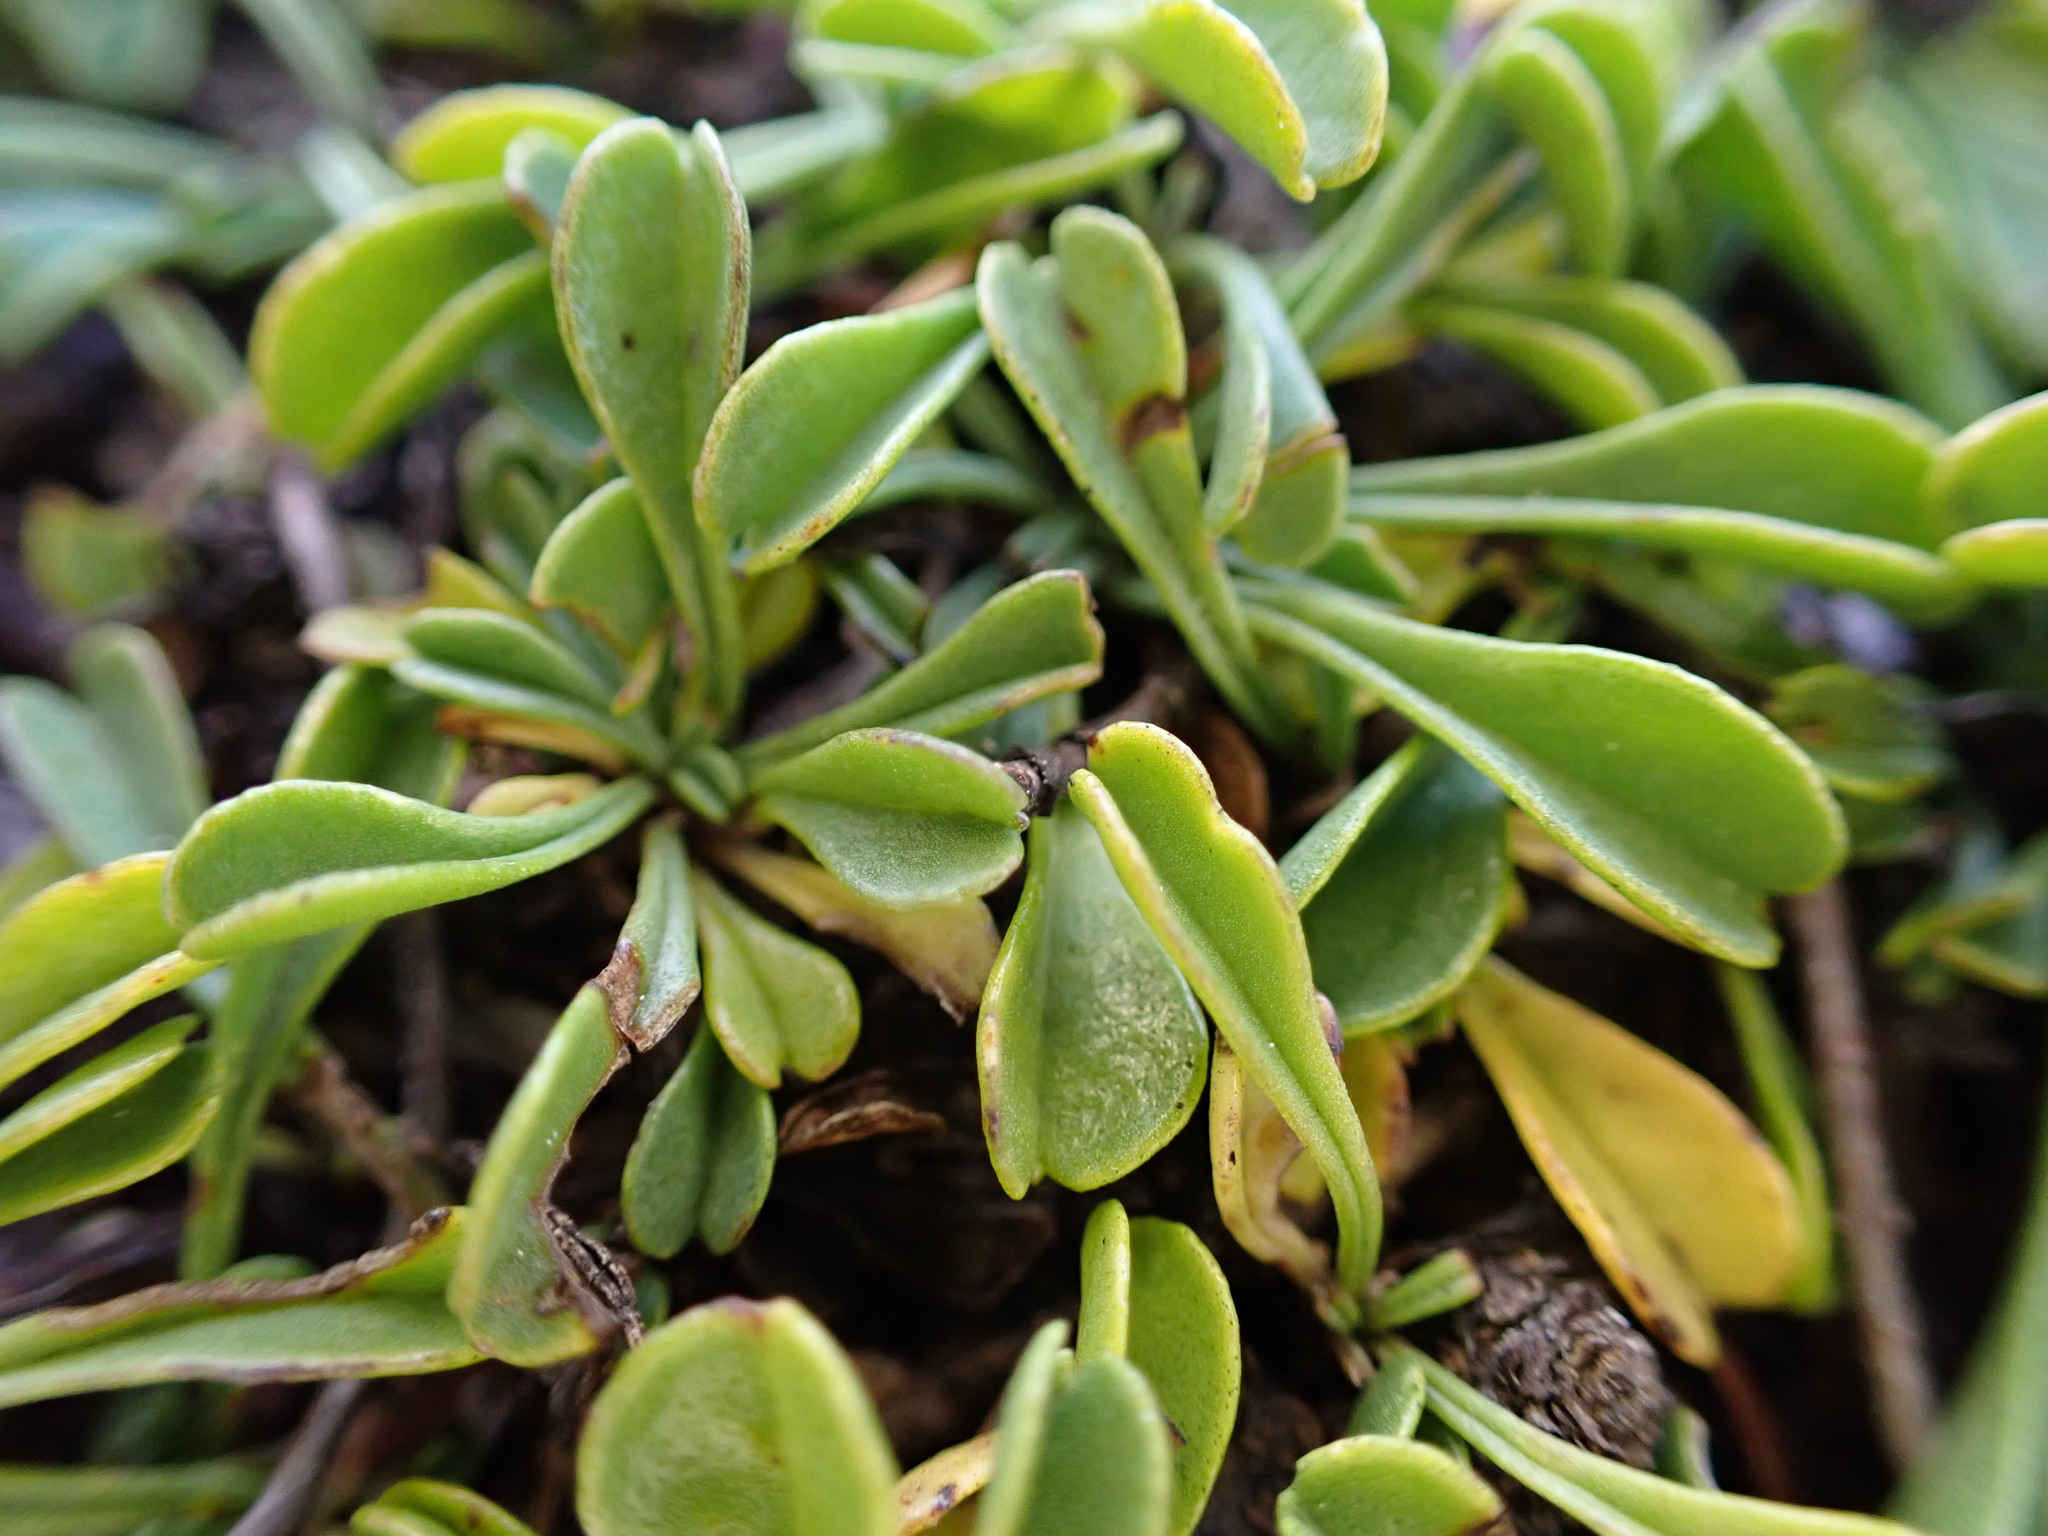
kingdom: Plantae
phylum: Tracheophyta
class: Magnoliopsida
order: Lamiales
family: Plantaginaceae
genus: Globularia
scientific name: Globularia cordifolia
